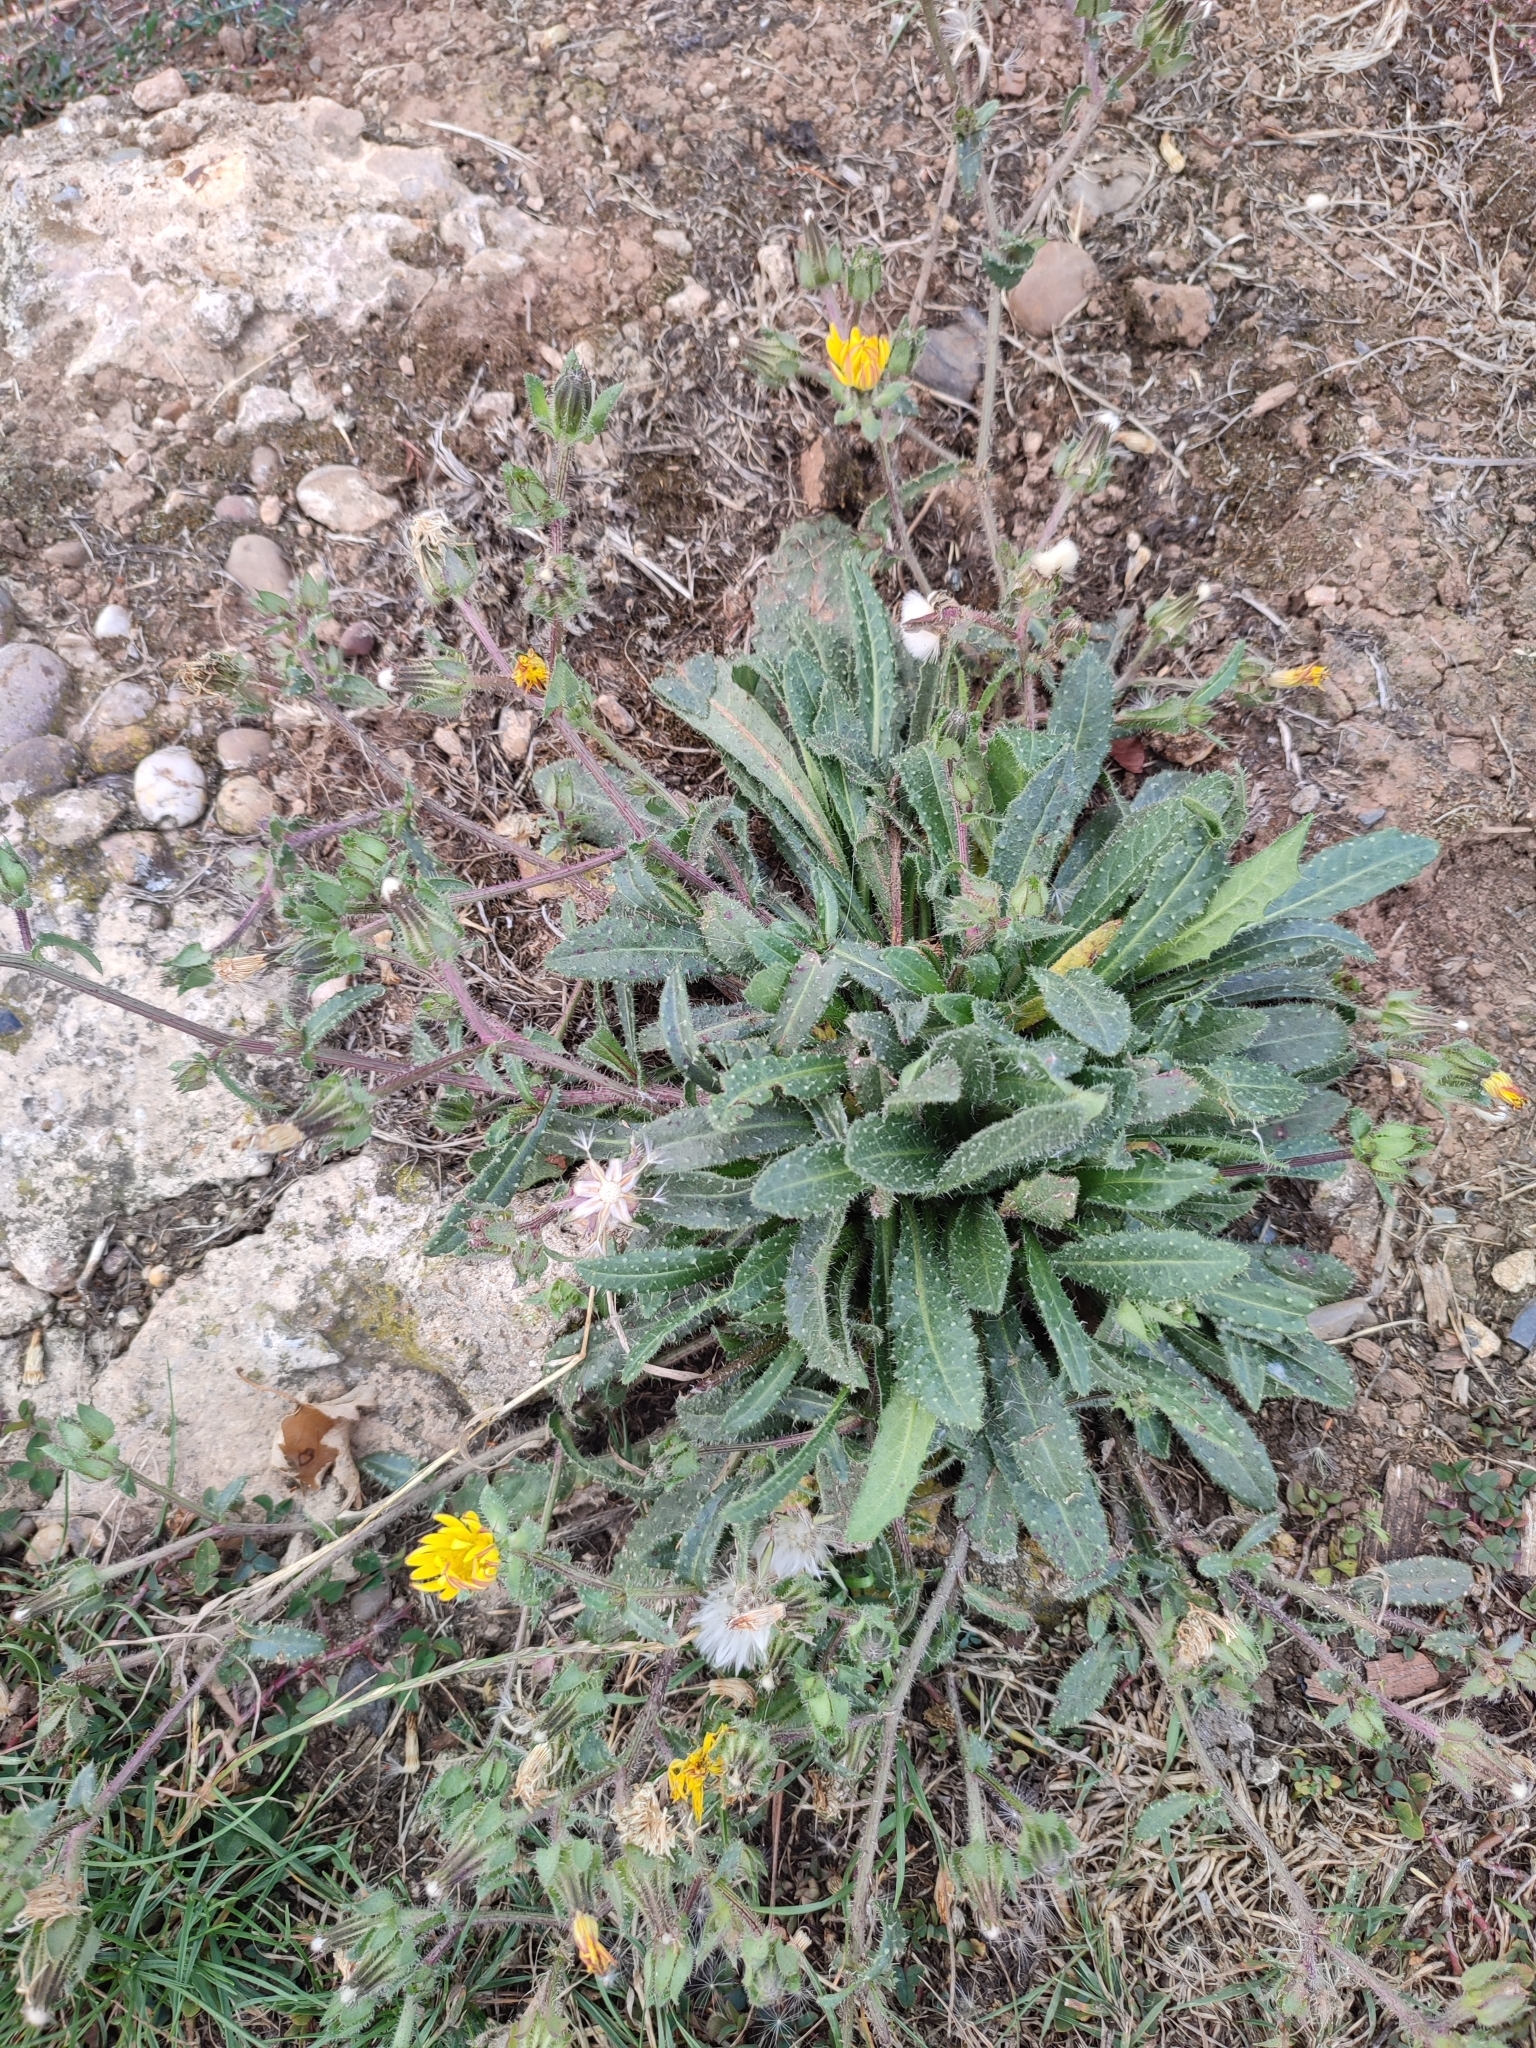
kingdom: Plantae
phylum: Tracheophyta
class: Magnoliopsida
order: Asterales
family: Asteraceae
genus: Helminthotheca
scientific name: Helminthotheca echioides
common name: Ox-tongue
